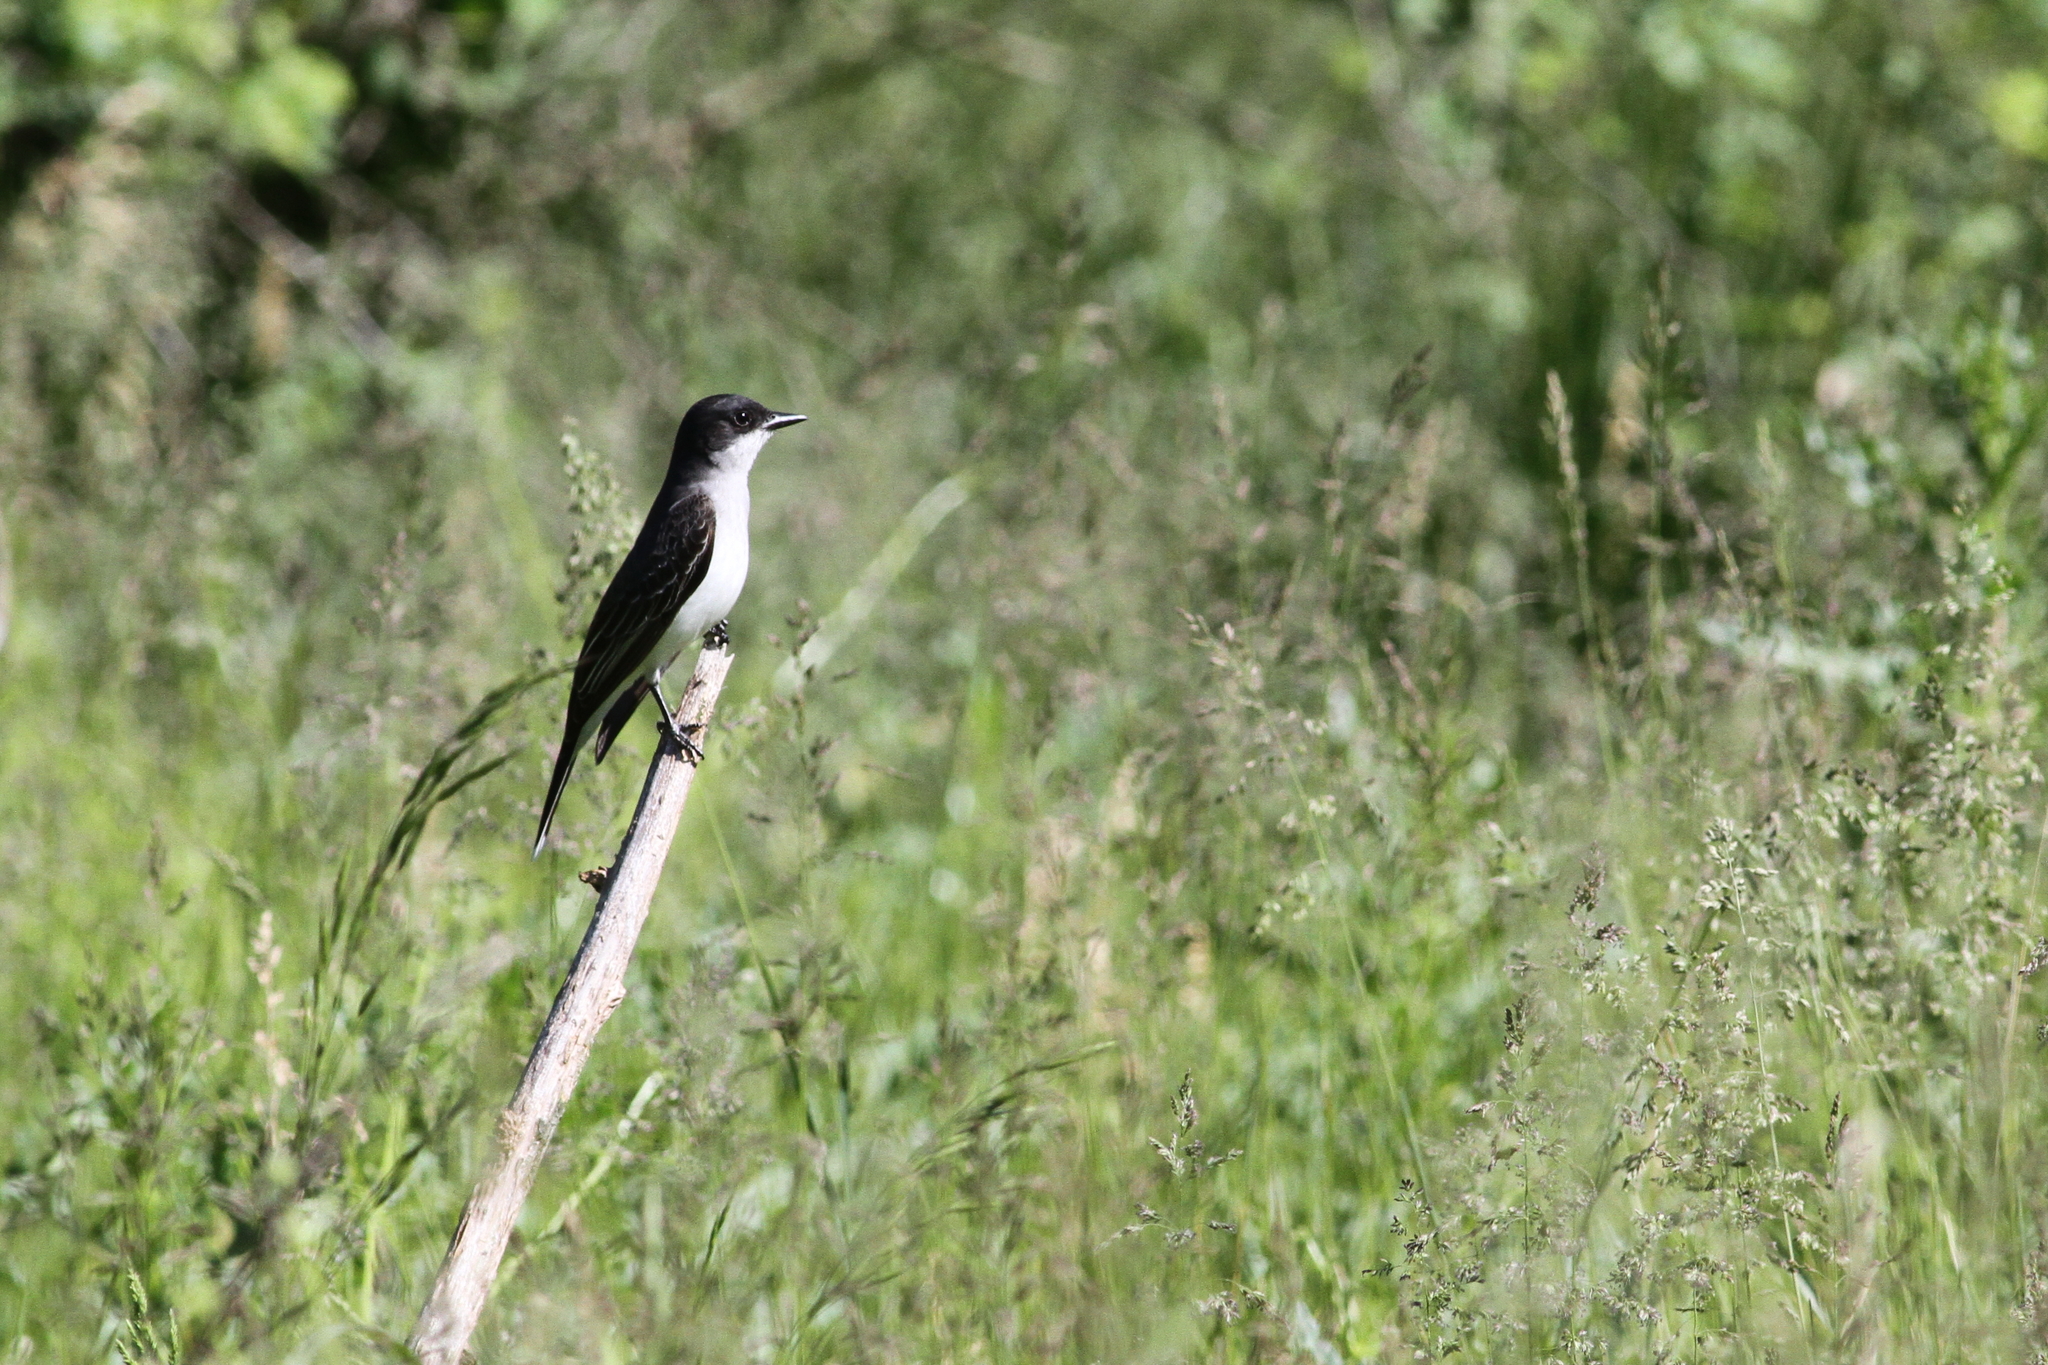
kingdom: Animalia
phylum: Chordata
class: Aves
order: Passeriformes
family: Tyrannidae
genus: Tyrannus
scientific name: Tyrannus tyrannus
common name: Eastern kingbird
